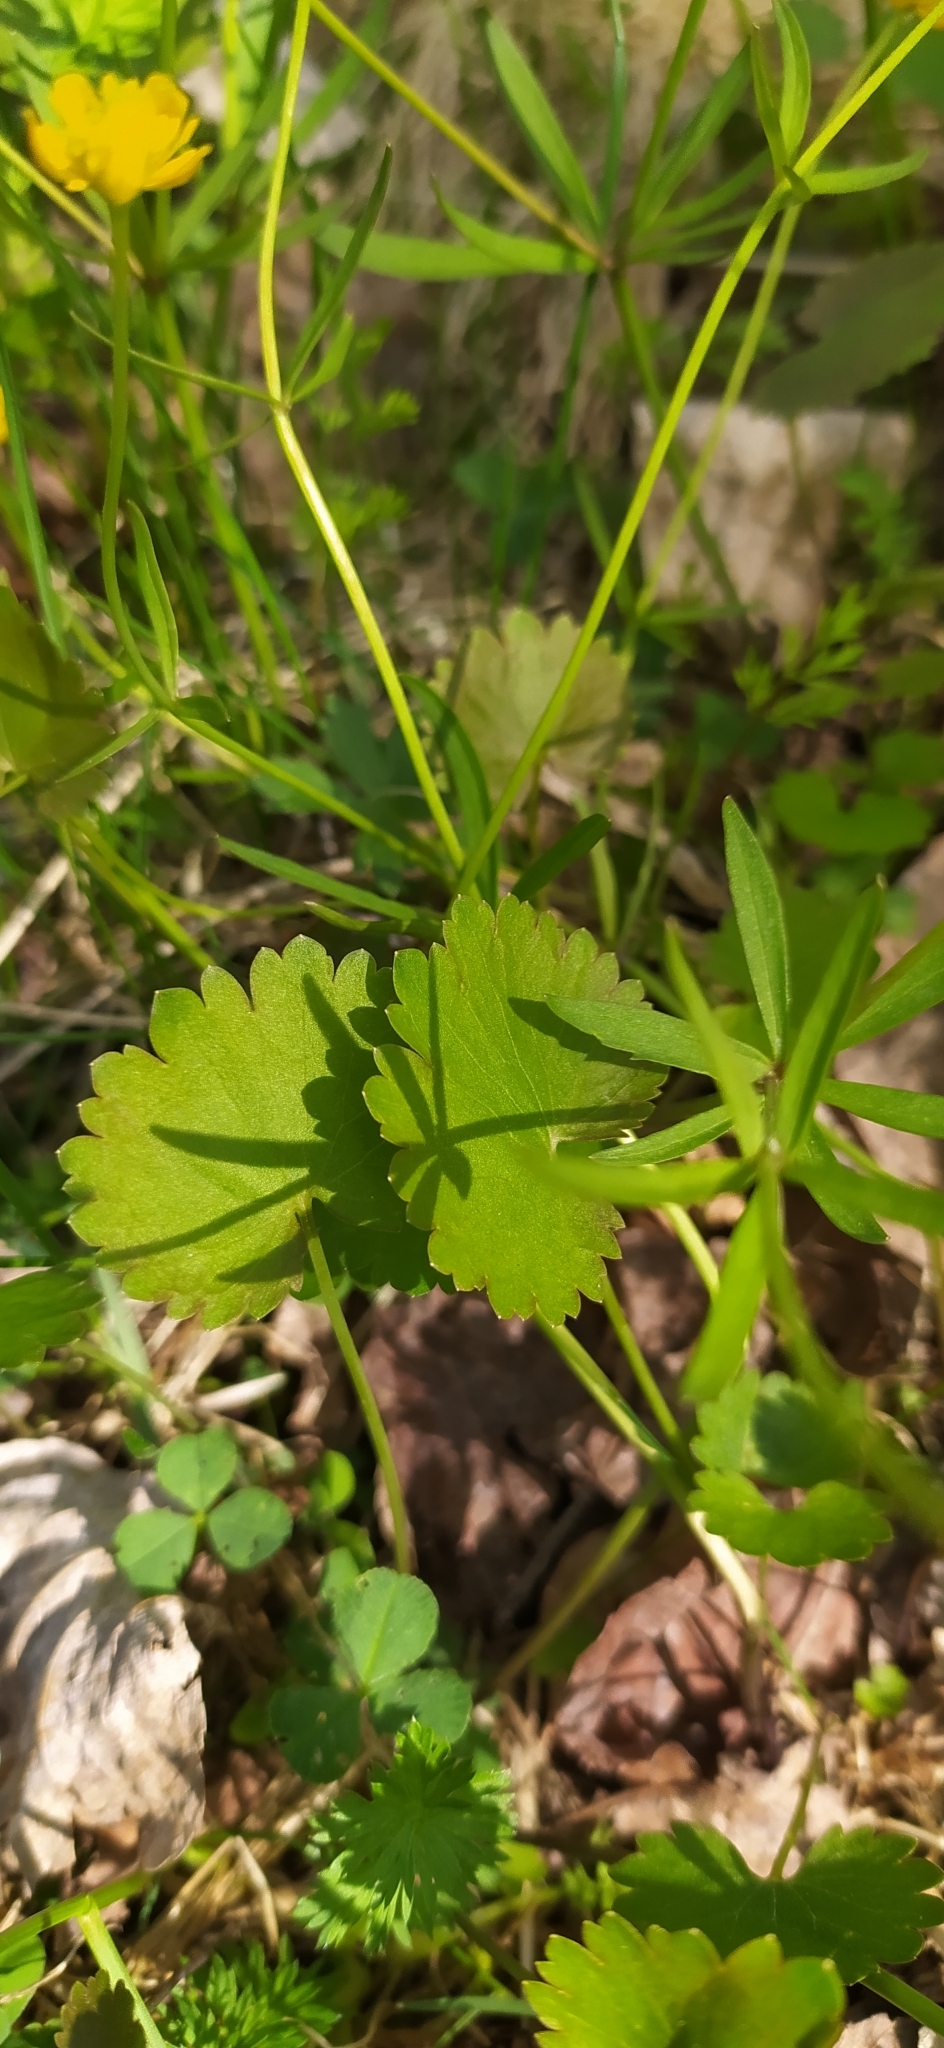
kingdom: Plantae
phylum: Tracheophyta
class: Magnoliopsida
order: Ranunculales
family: Ranunculaceae
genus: Ranunculus
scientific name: Ranunculus monophyllus
